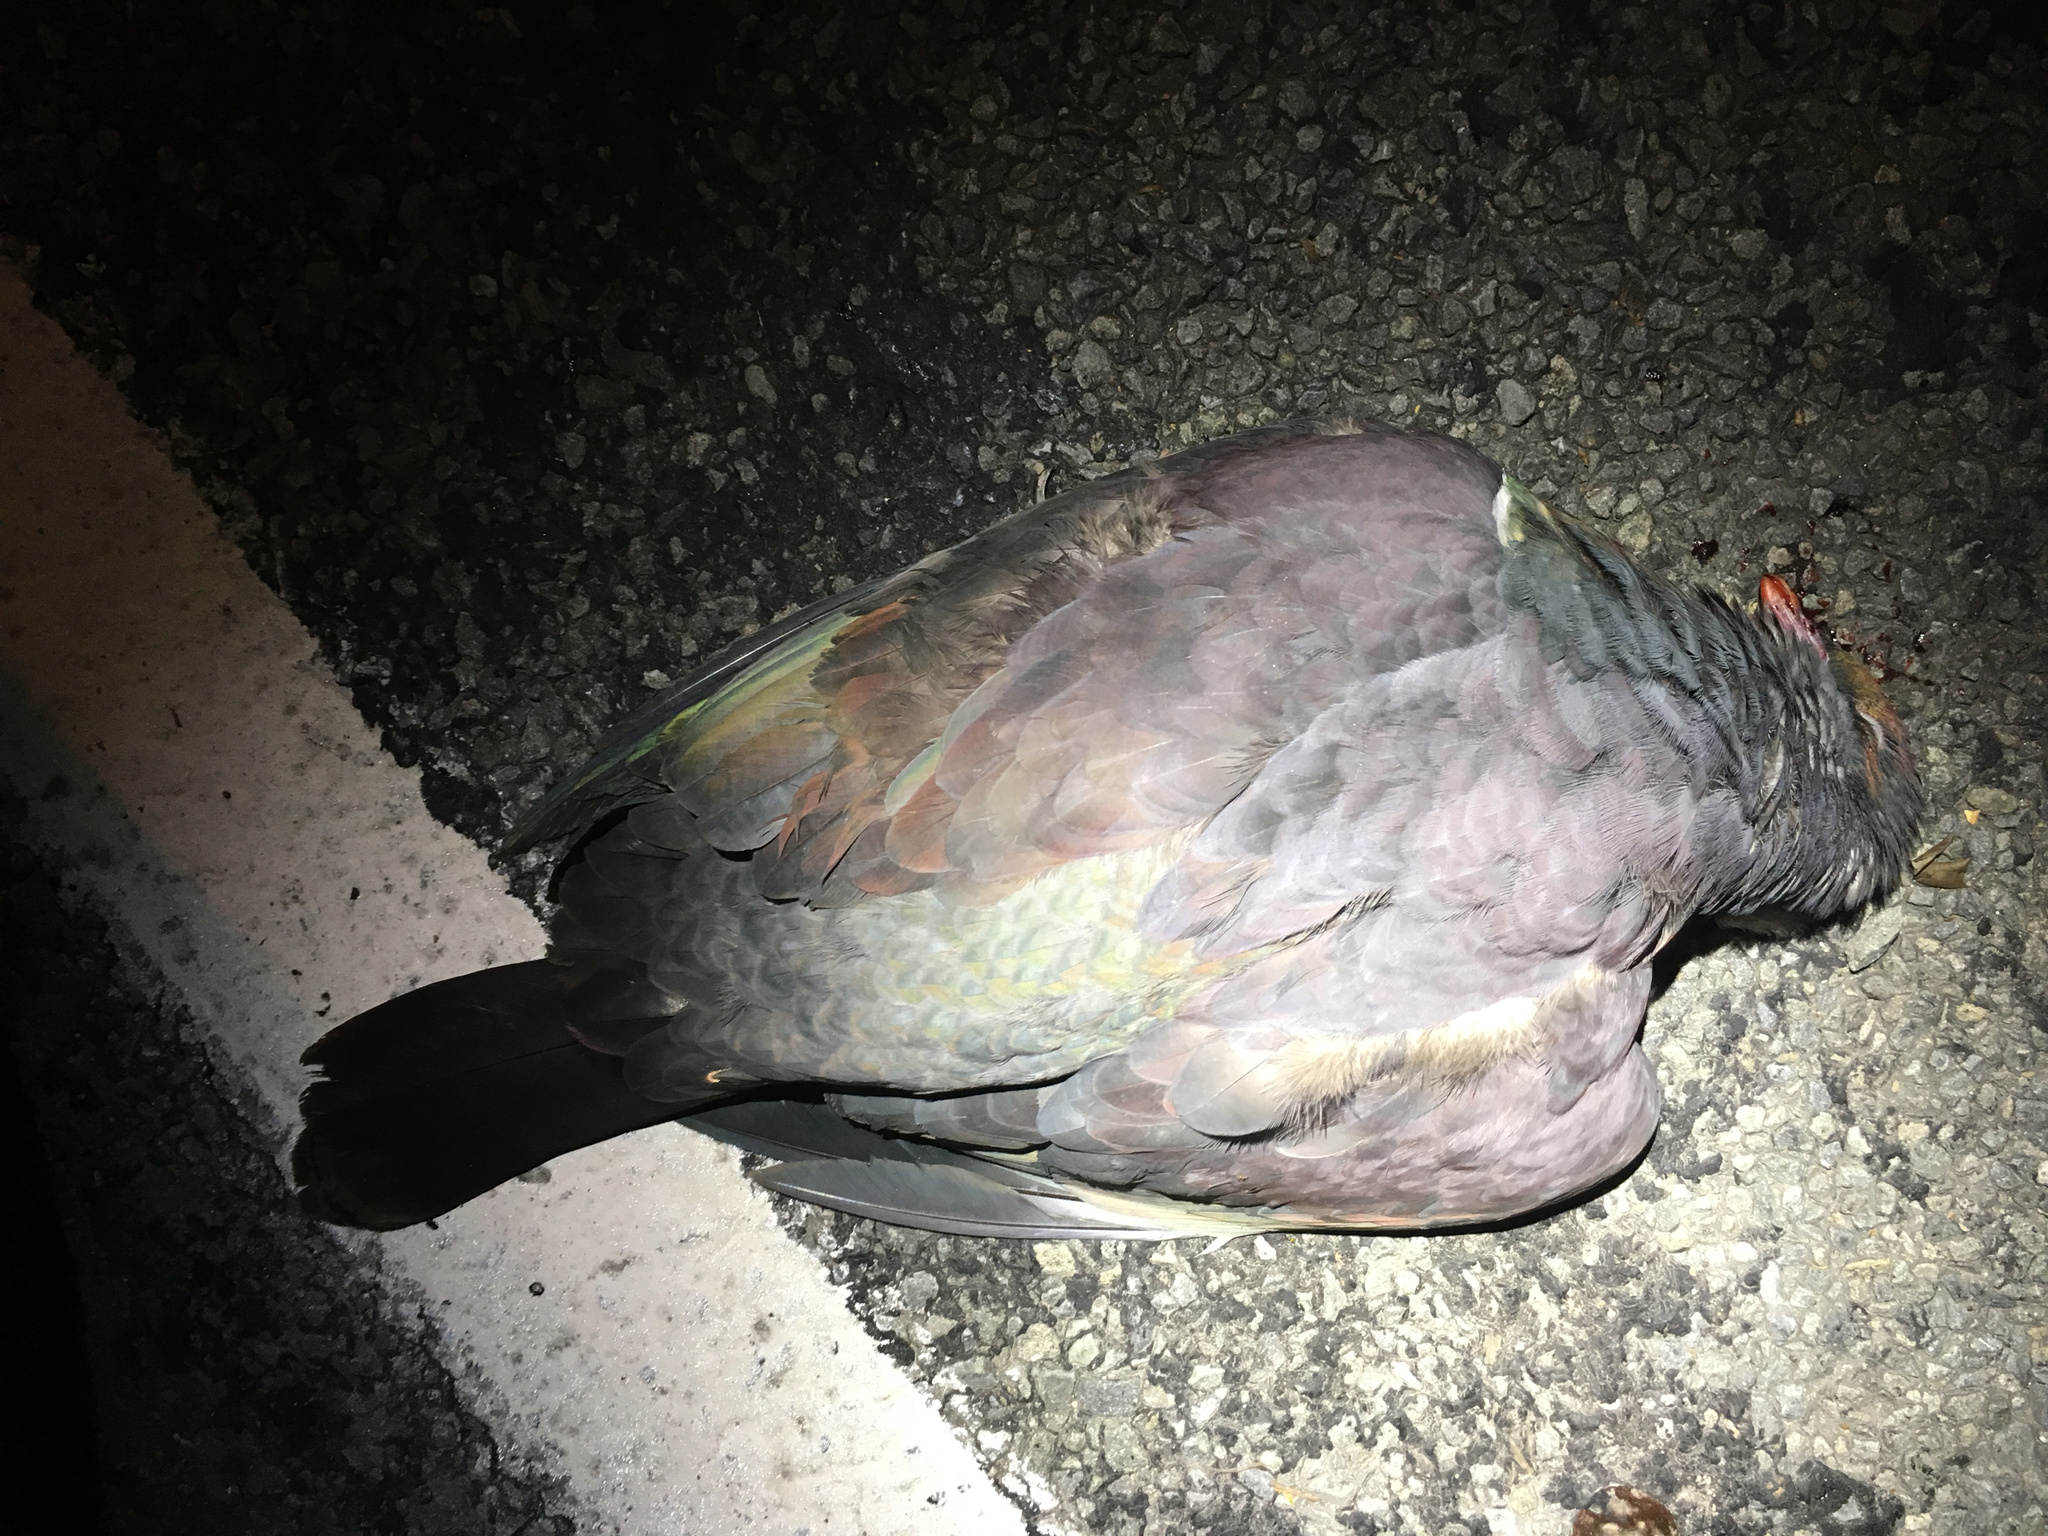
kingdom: Animalia
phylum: Chordata
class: Aves
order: Columbiformes
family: Columbidae
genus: Hemiphaga
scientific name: Hemiphaga novaeseelandiae
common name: New zealand pigeon
